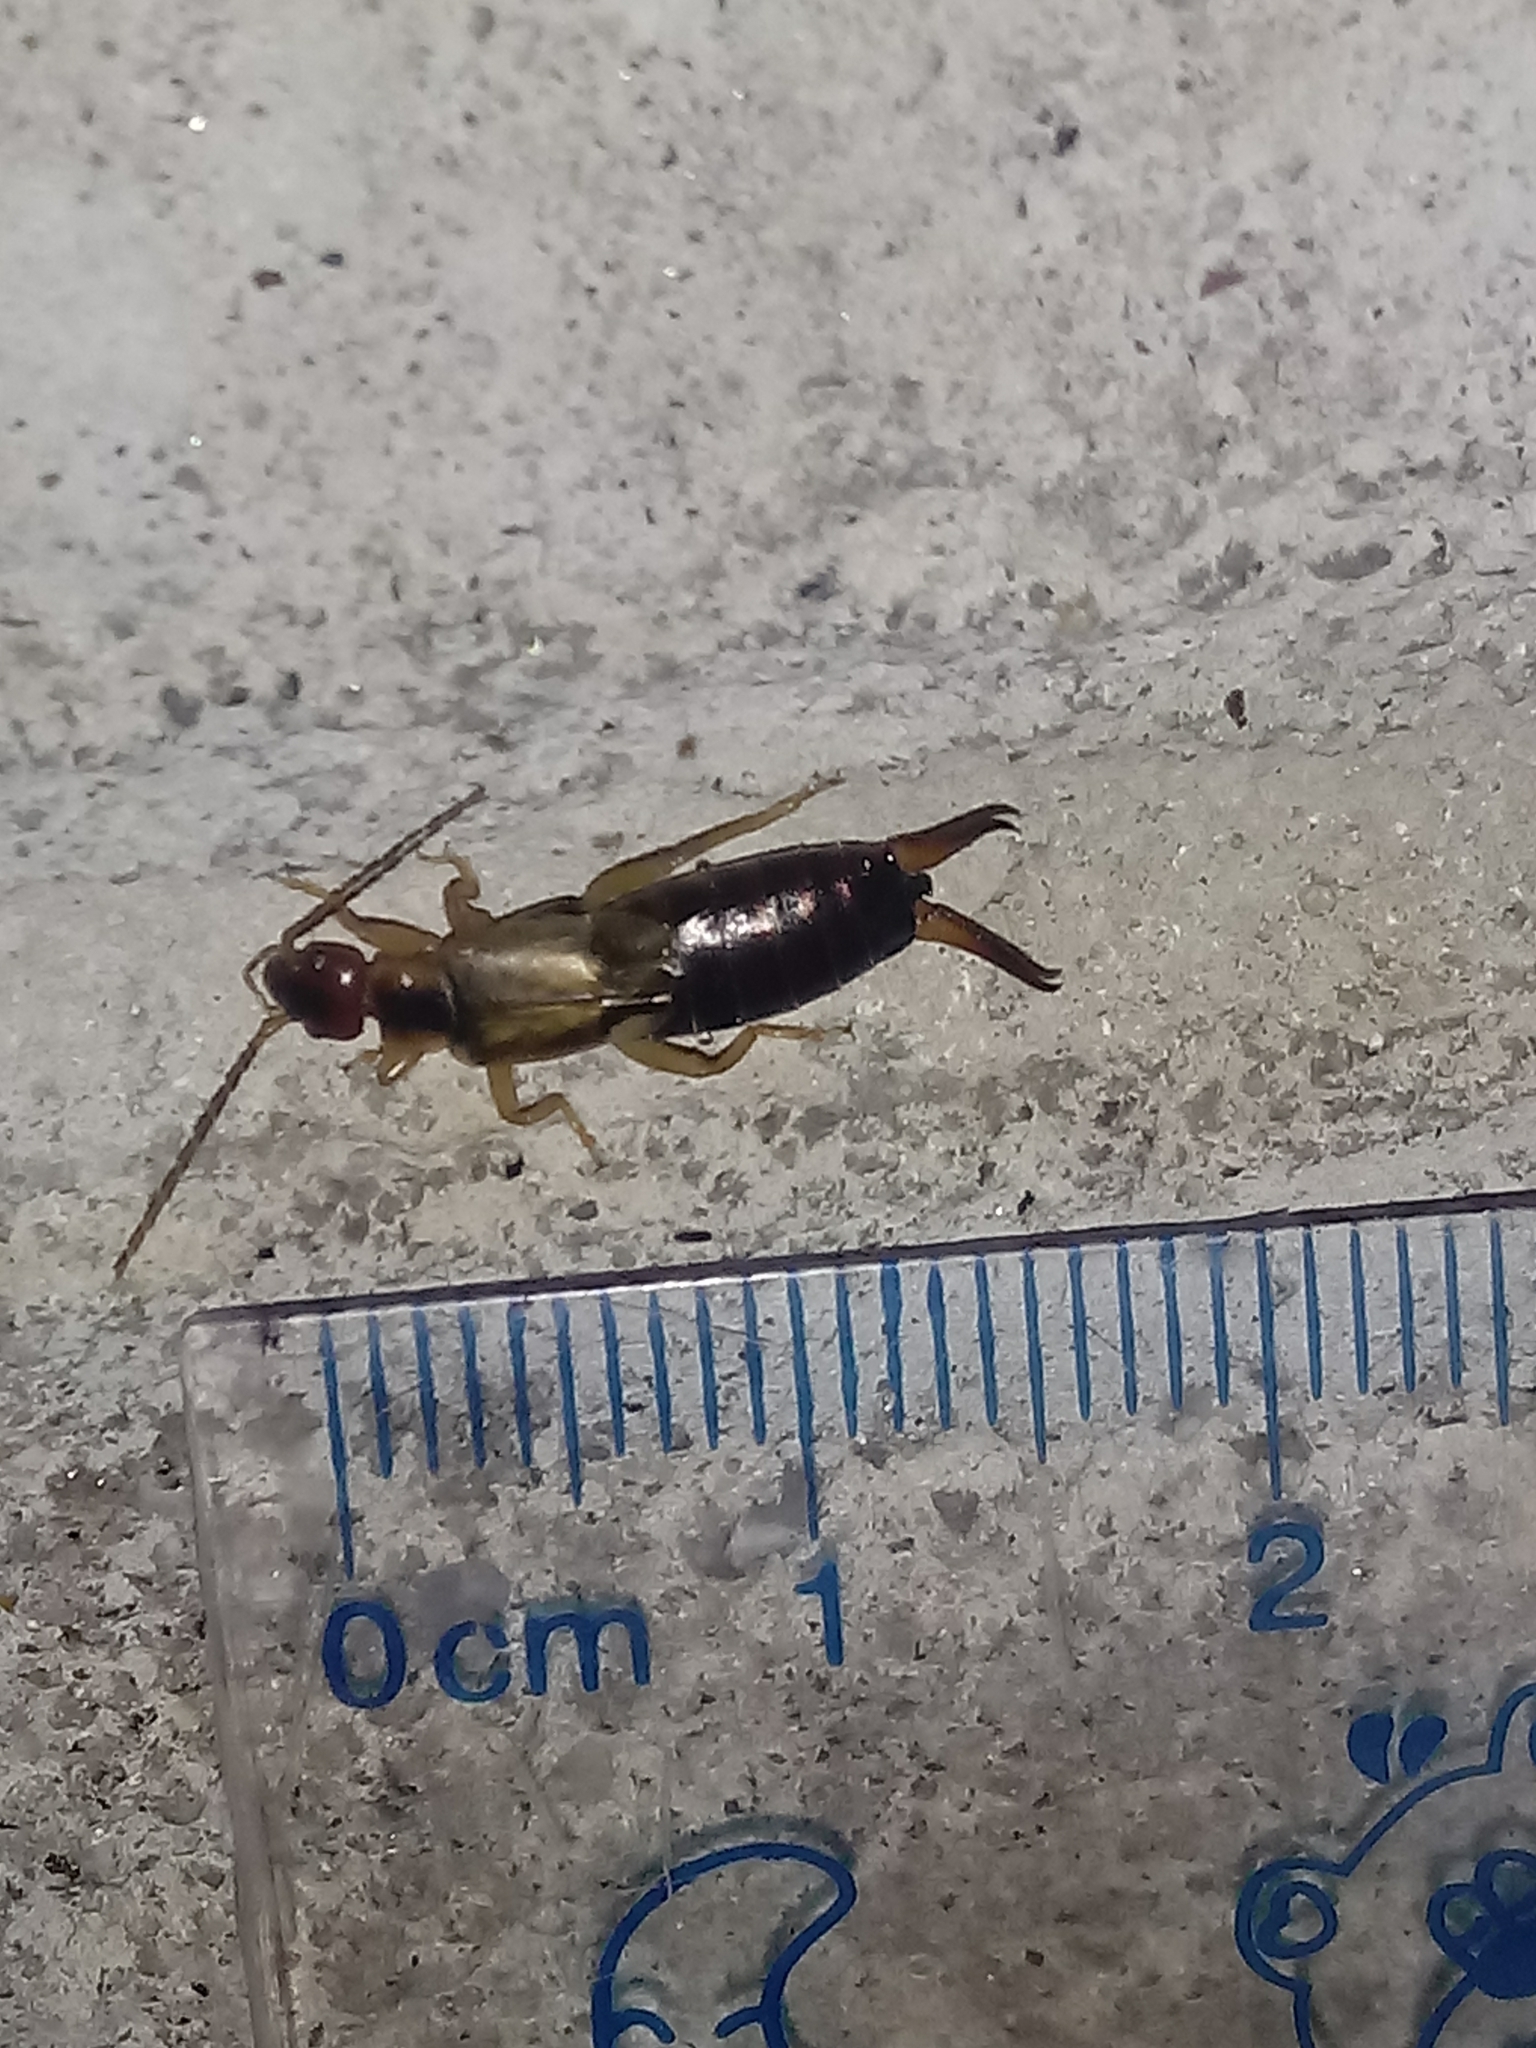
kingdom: Animalia
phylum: Arthropoda
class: Insecta
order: Dermaptera
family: Forficulidae
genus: Forficula
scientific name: Forficula
